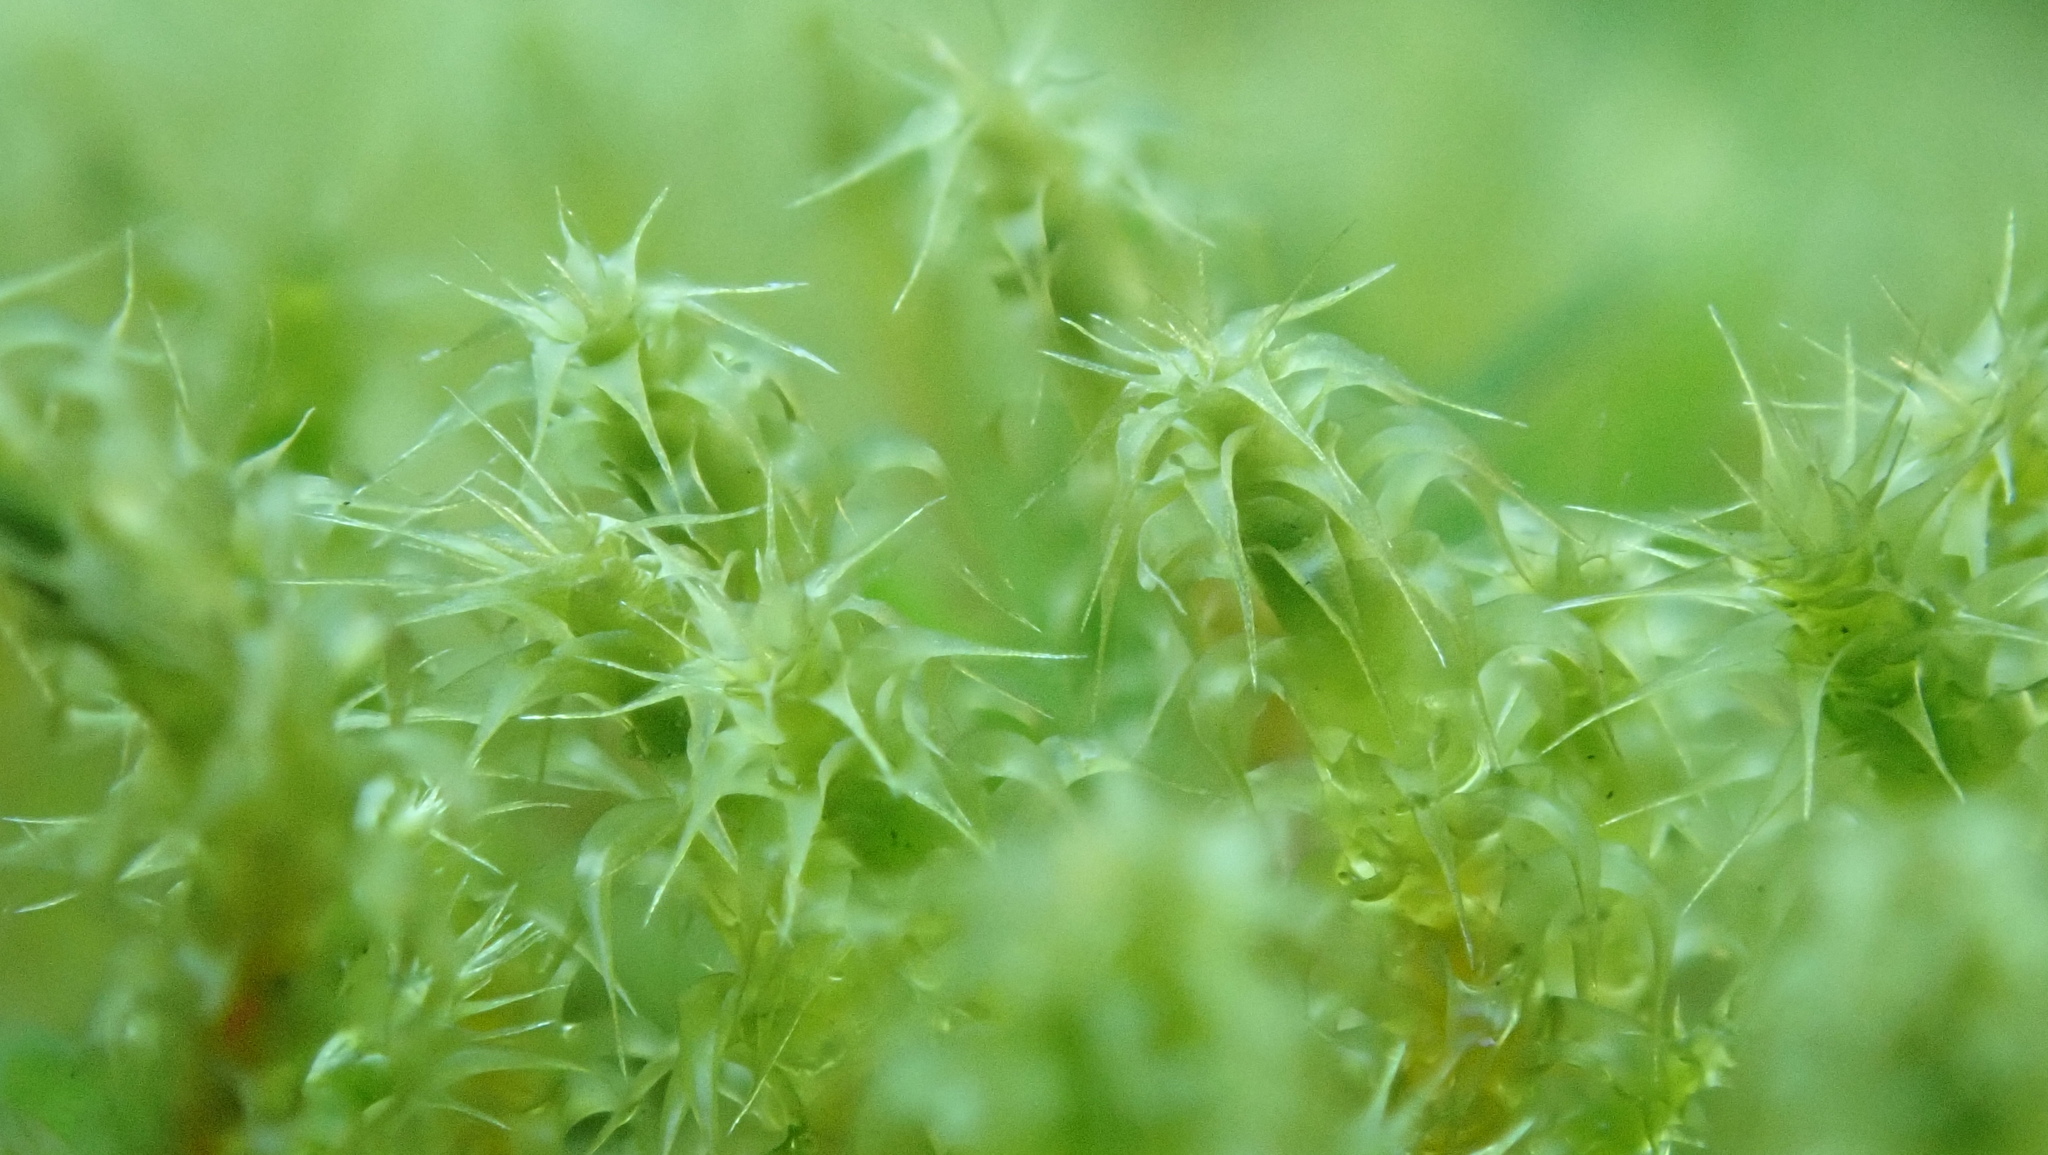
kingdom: Plantae
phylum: Bryophyta
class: Bryopsida
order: Hypnales
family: Hylocomiaceae
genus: Rhytidiadelphus
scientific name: Rhytidiadelphus squarrosus
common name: Springy turf-moss
